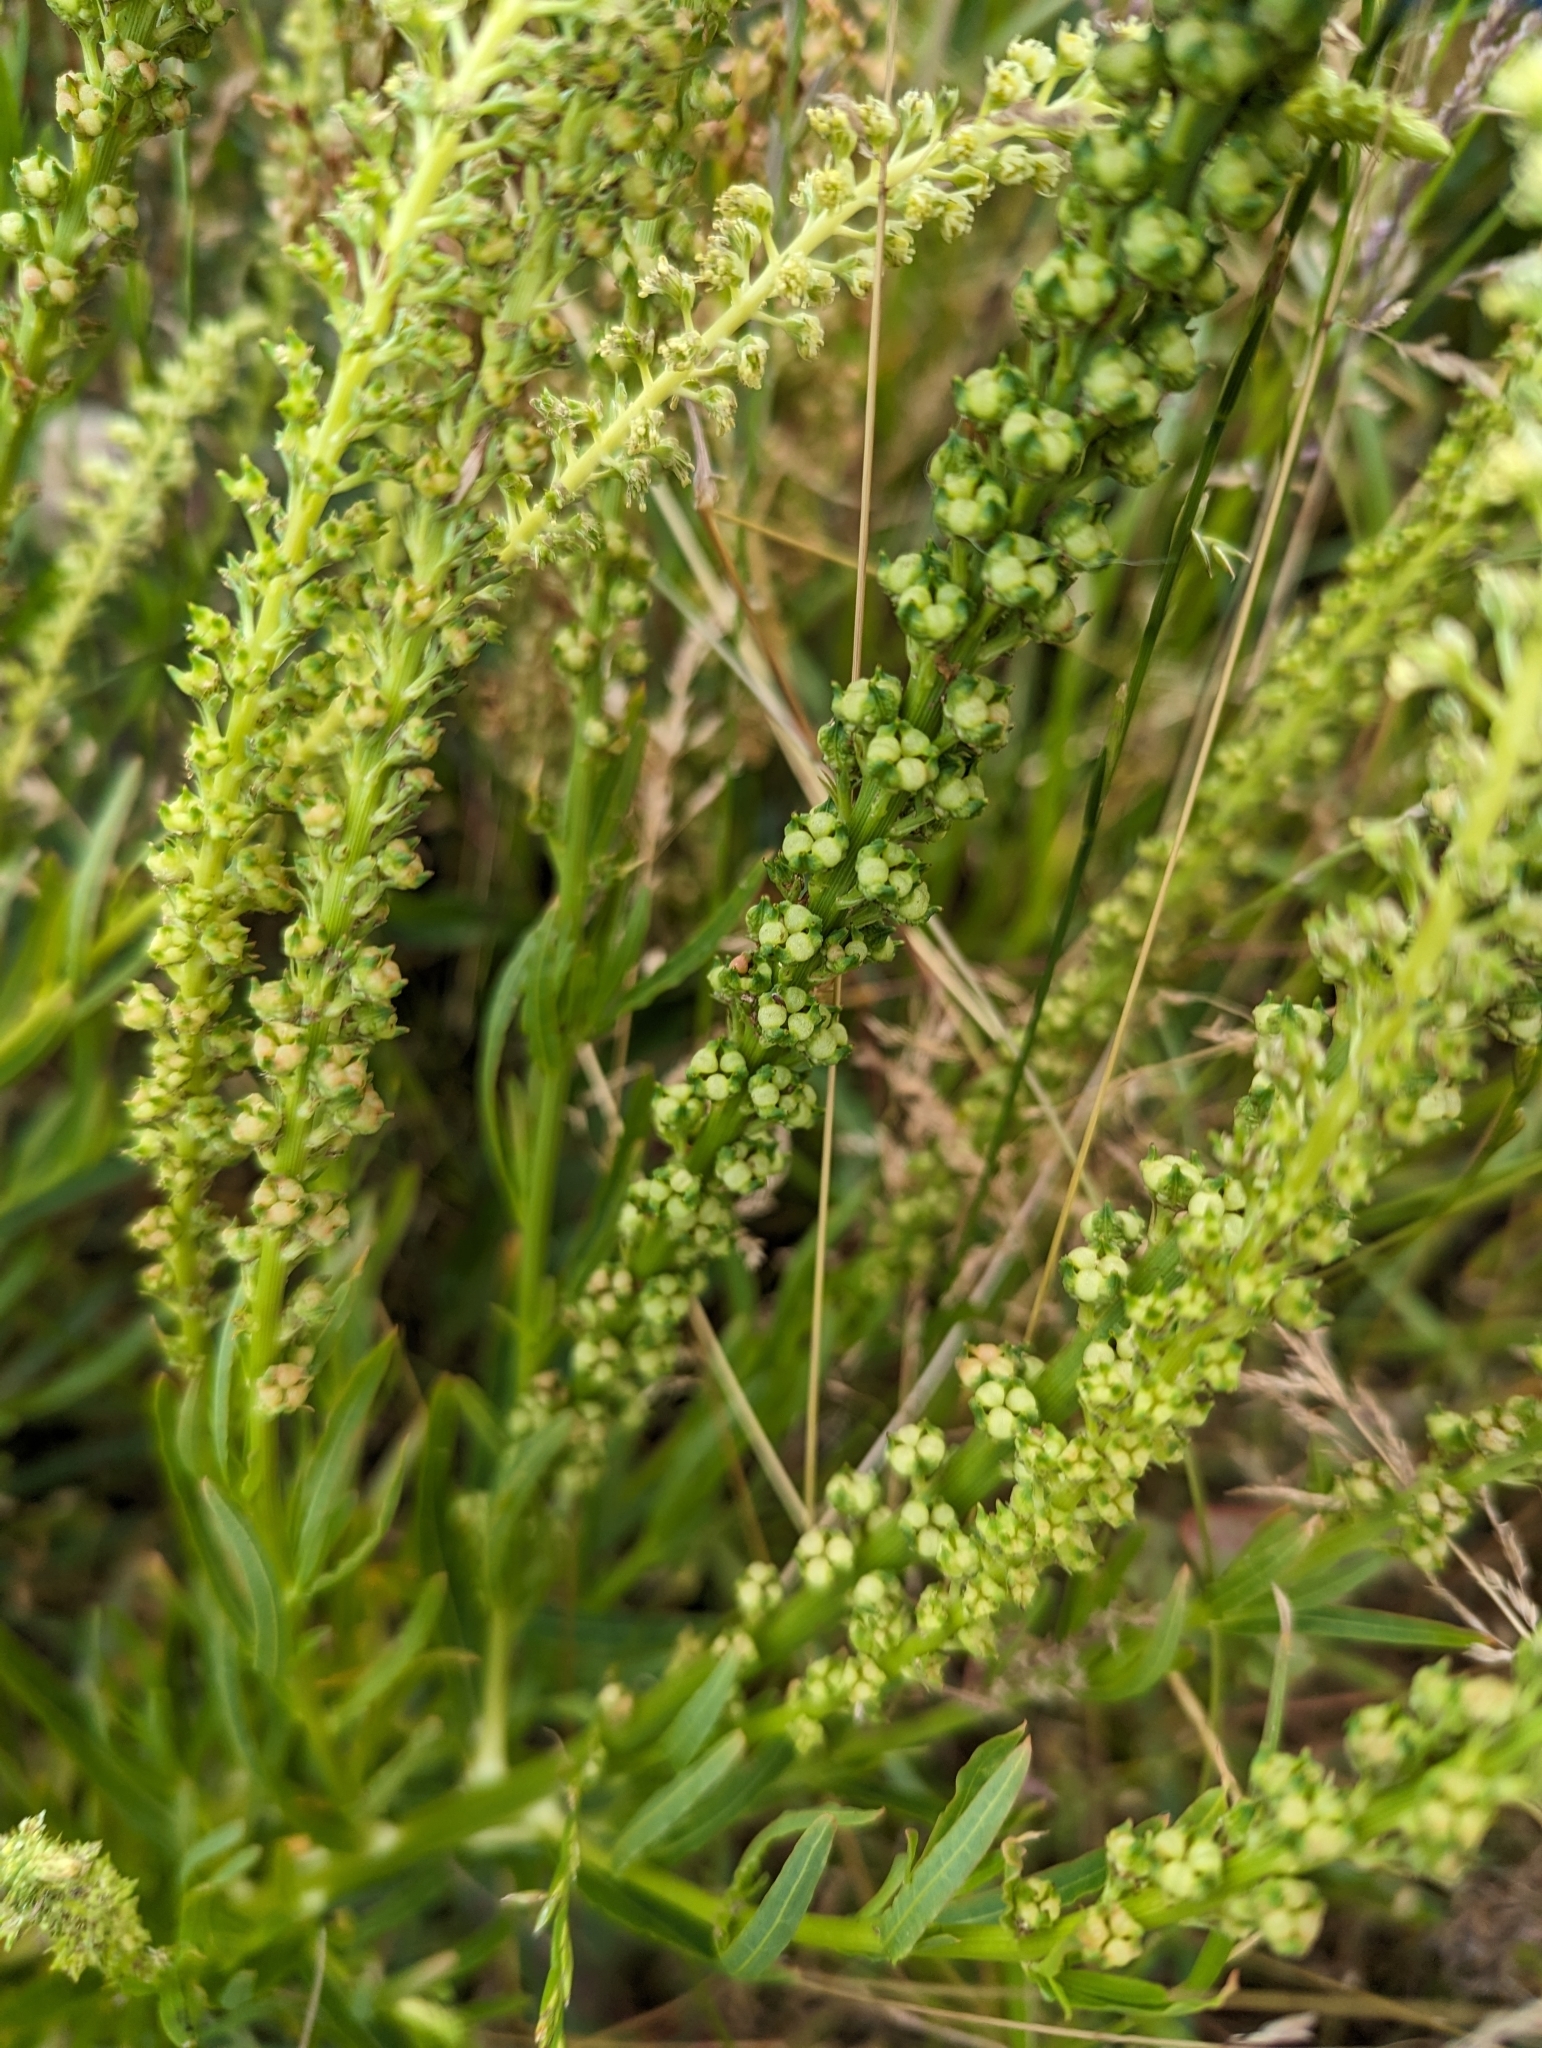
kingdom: Plantae
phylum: Tracheophyta
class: Magnoliopsida
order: Brassicales
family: Resedaceae
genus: Reseda
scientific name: Reseda luteola
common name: Weld
